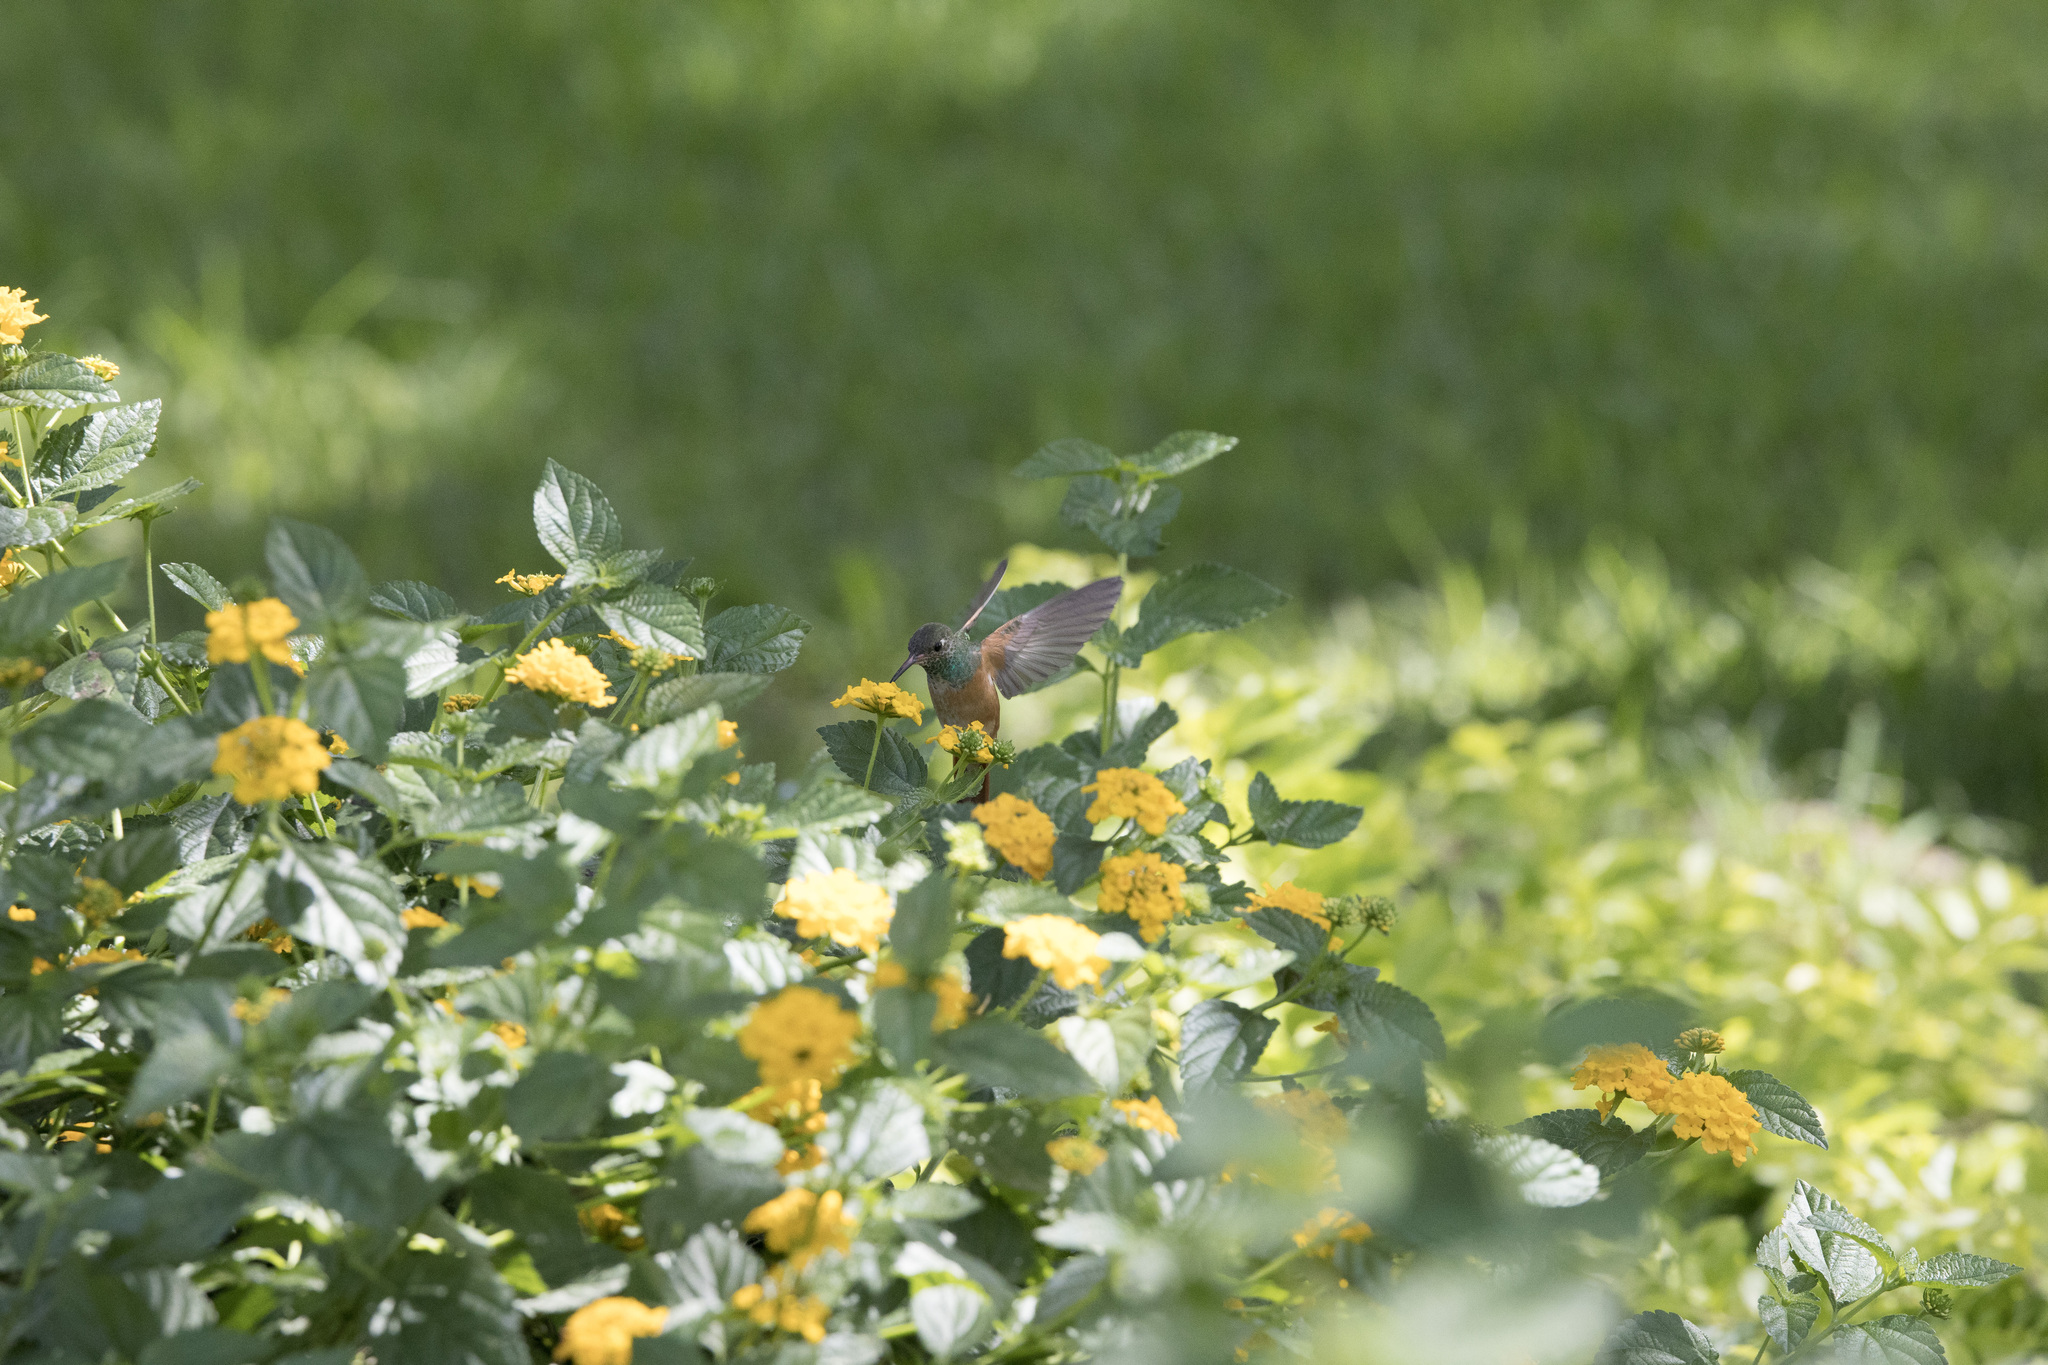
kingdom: Animalia
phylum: Chordata
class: Aves
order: Apodiformes
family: Trochilidae
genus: Amazilis
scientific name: Amazilis amazilia
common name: Amazilia hummingbird
